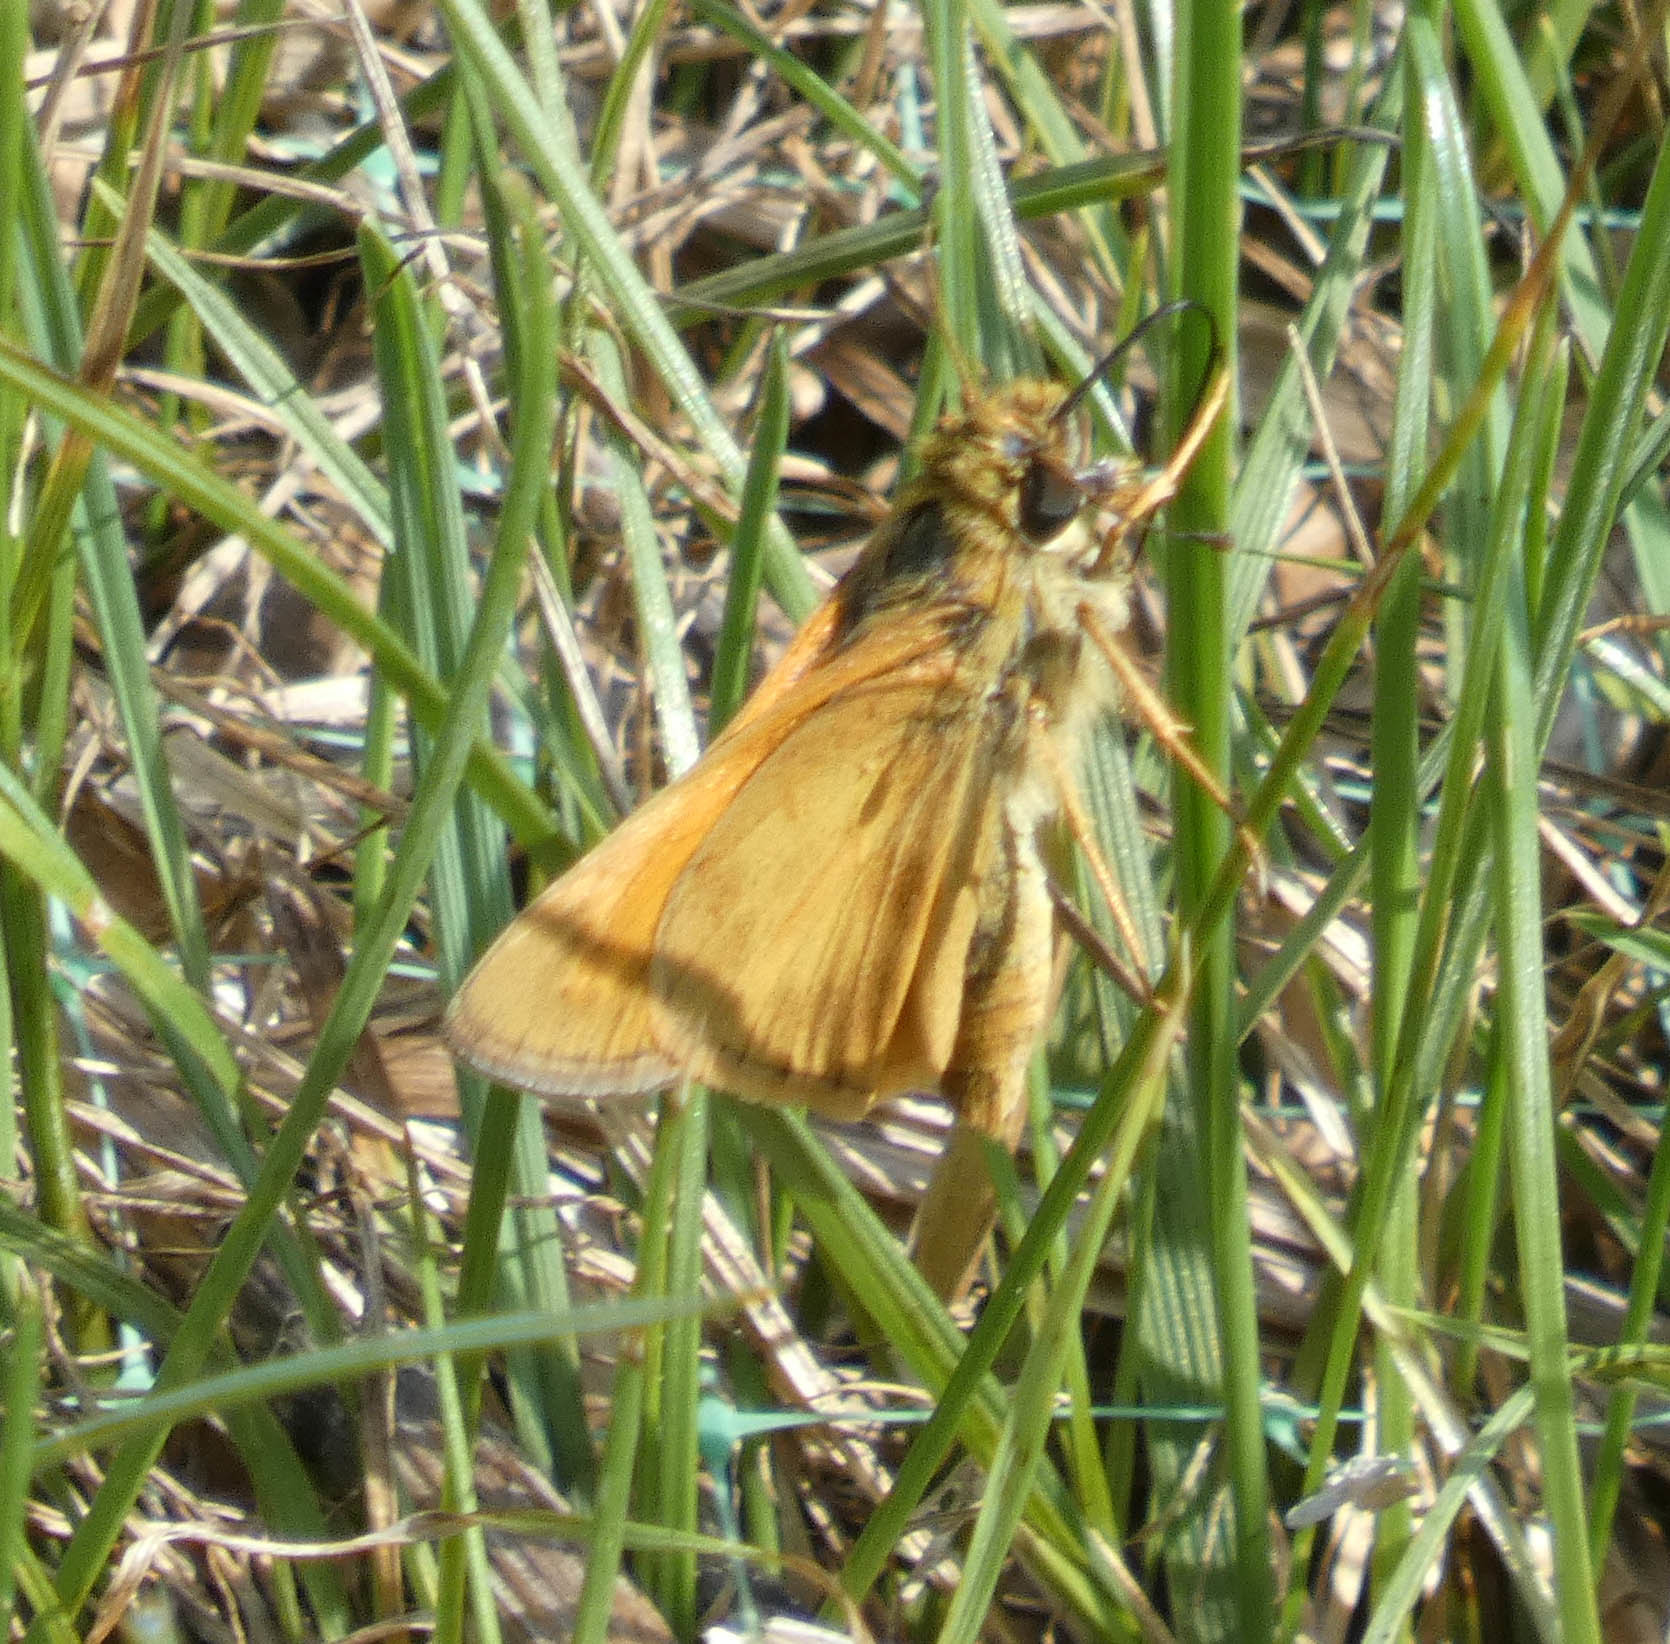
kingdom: Animalia
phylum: Arthropoda
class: Insecta
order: Lepidoptera
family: Hesperiidae
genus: Atalopedes
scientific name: Atalopedes
